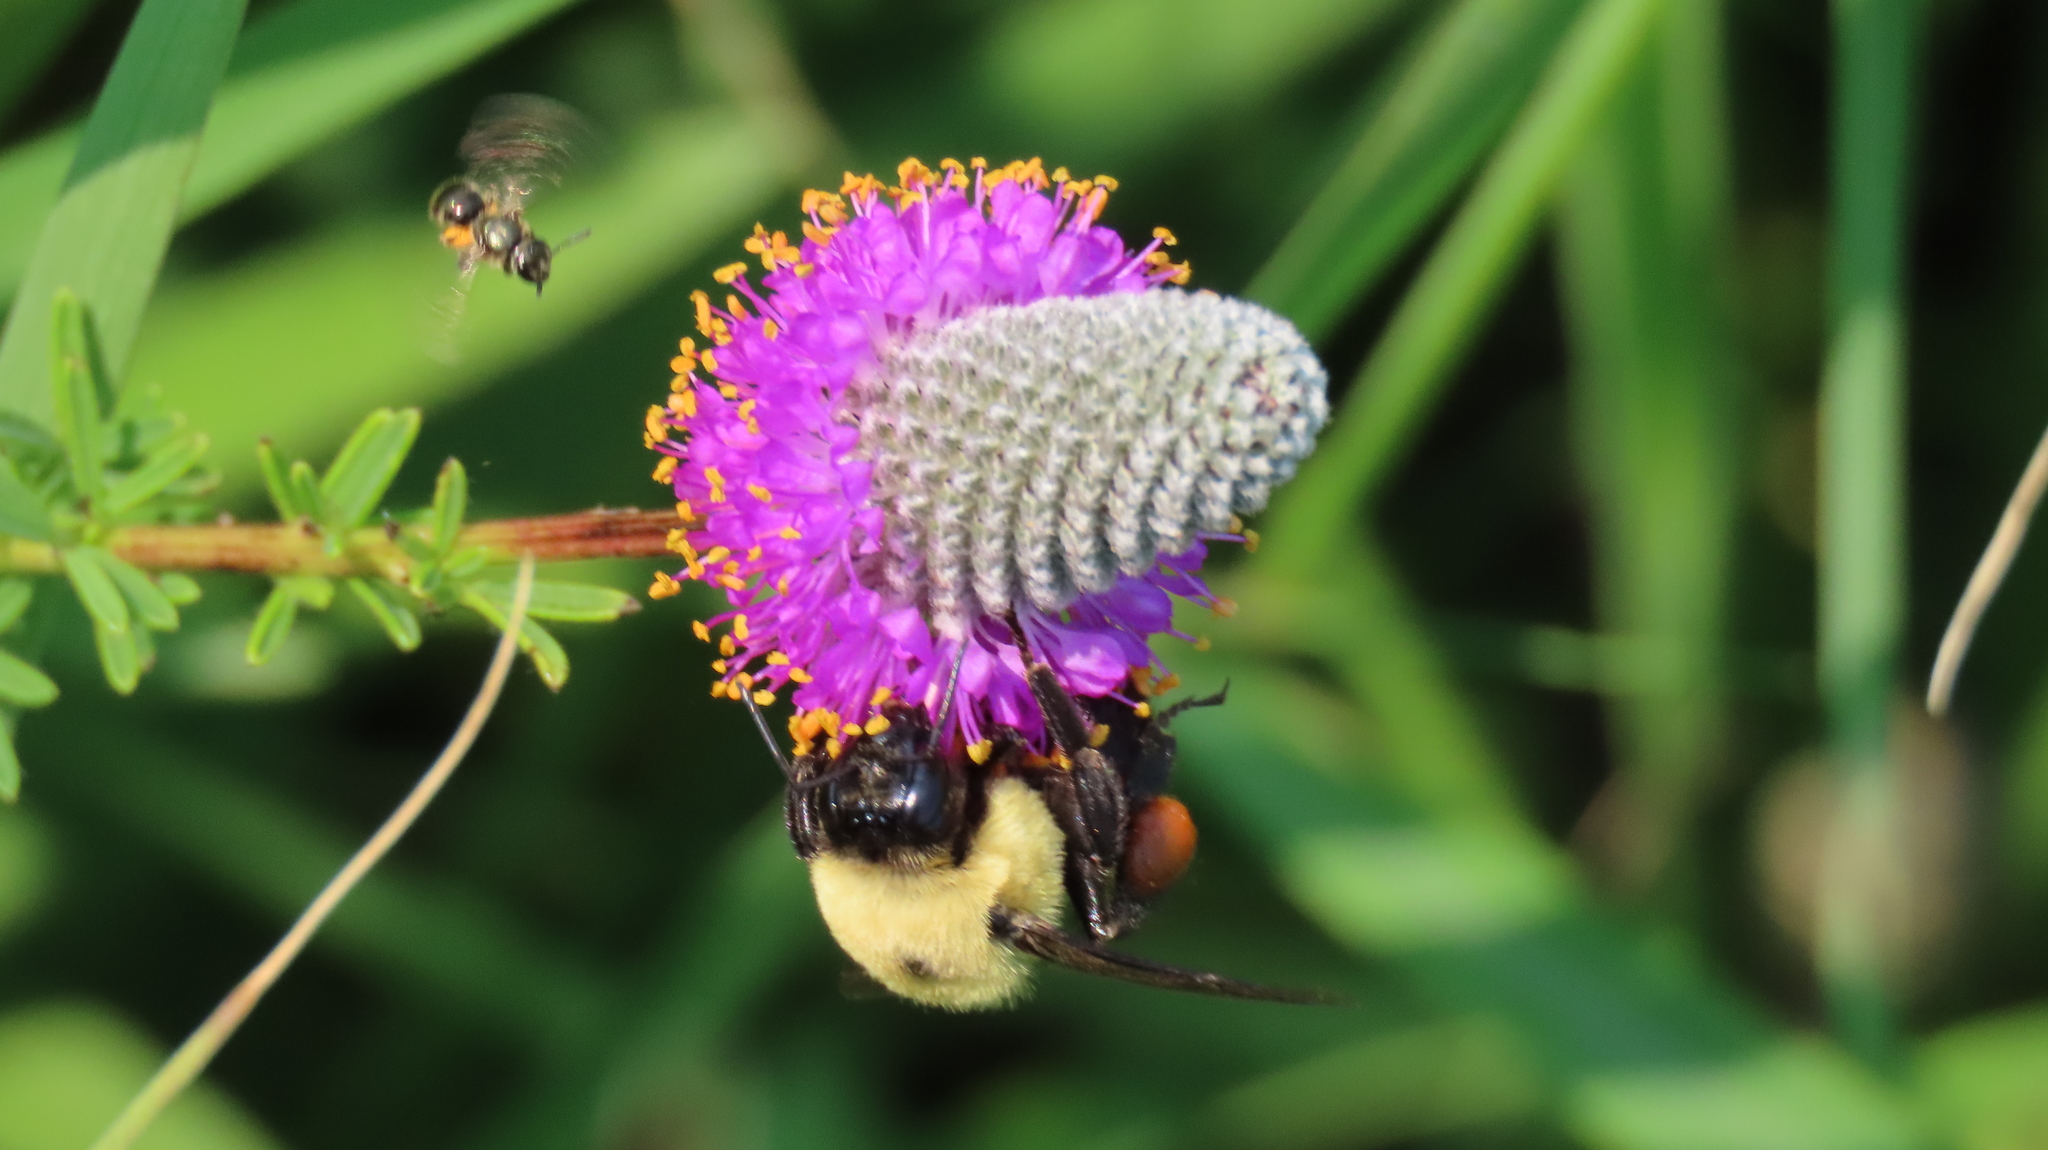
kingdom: Animalia
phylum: Arthropoda
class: Insecta
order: Hymenoptera
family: Apidae
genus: Bombus
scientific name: Bombus griseocollis
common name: Brown-belted bumble bee
